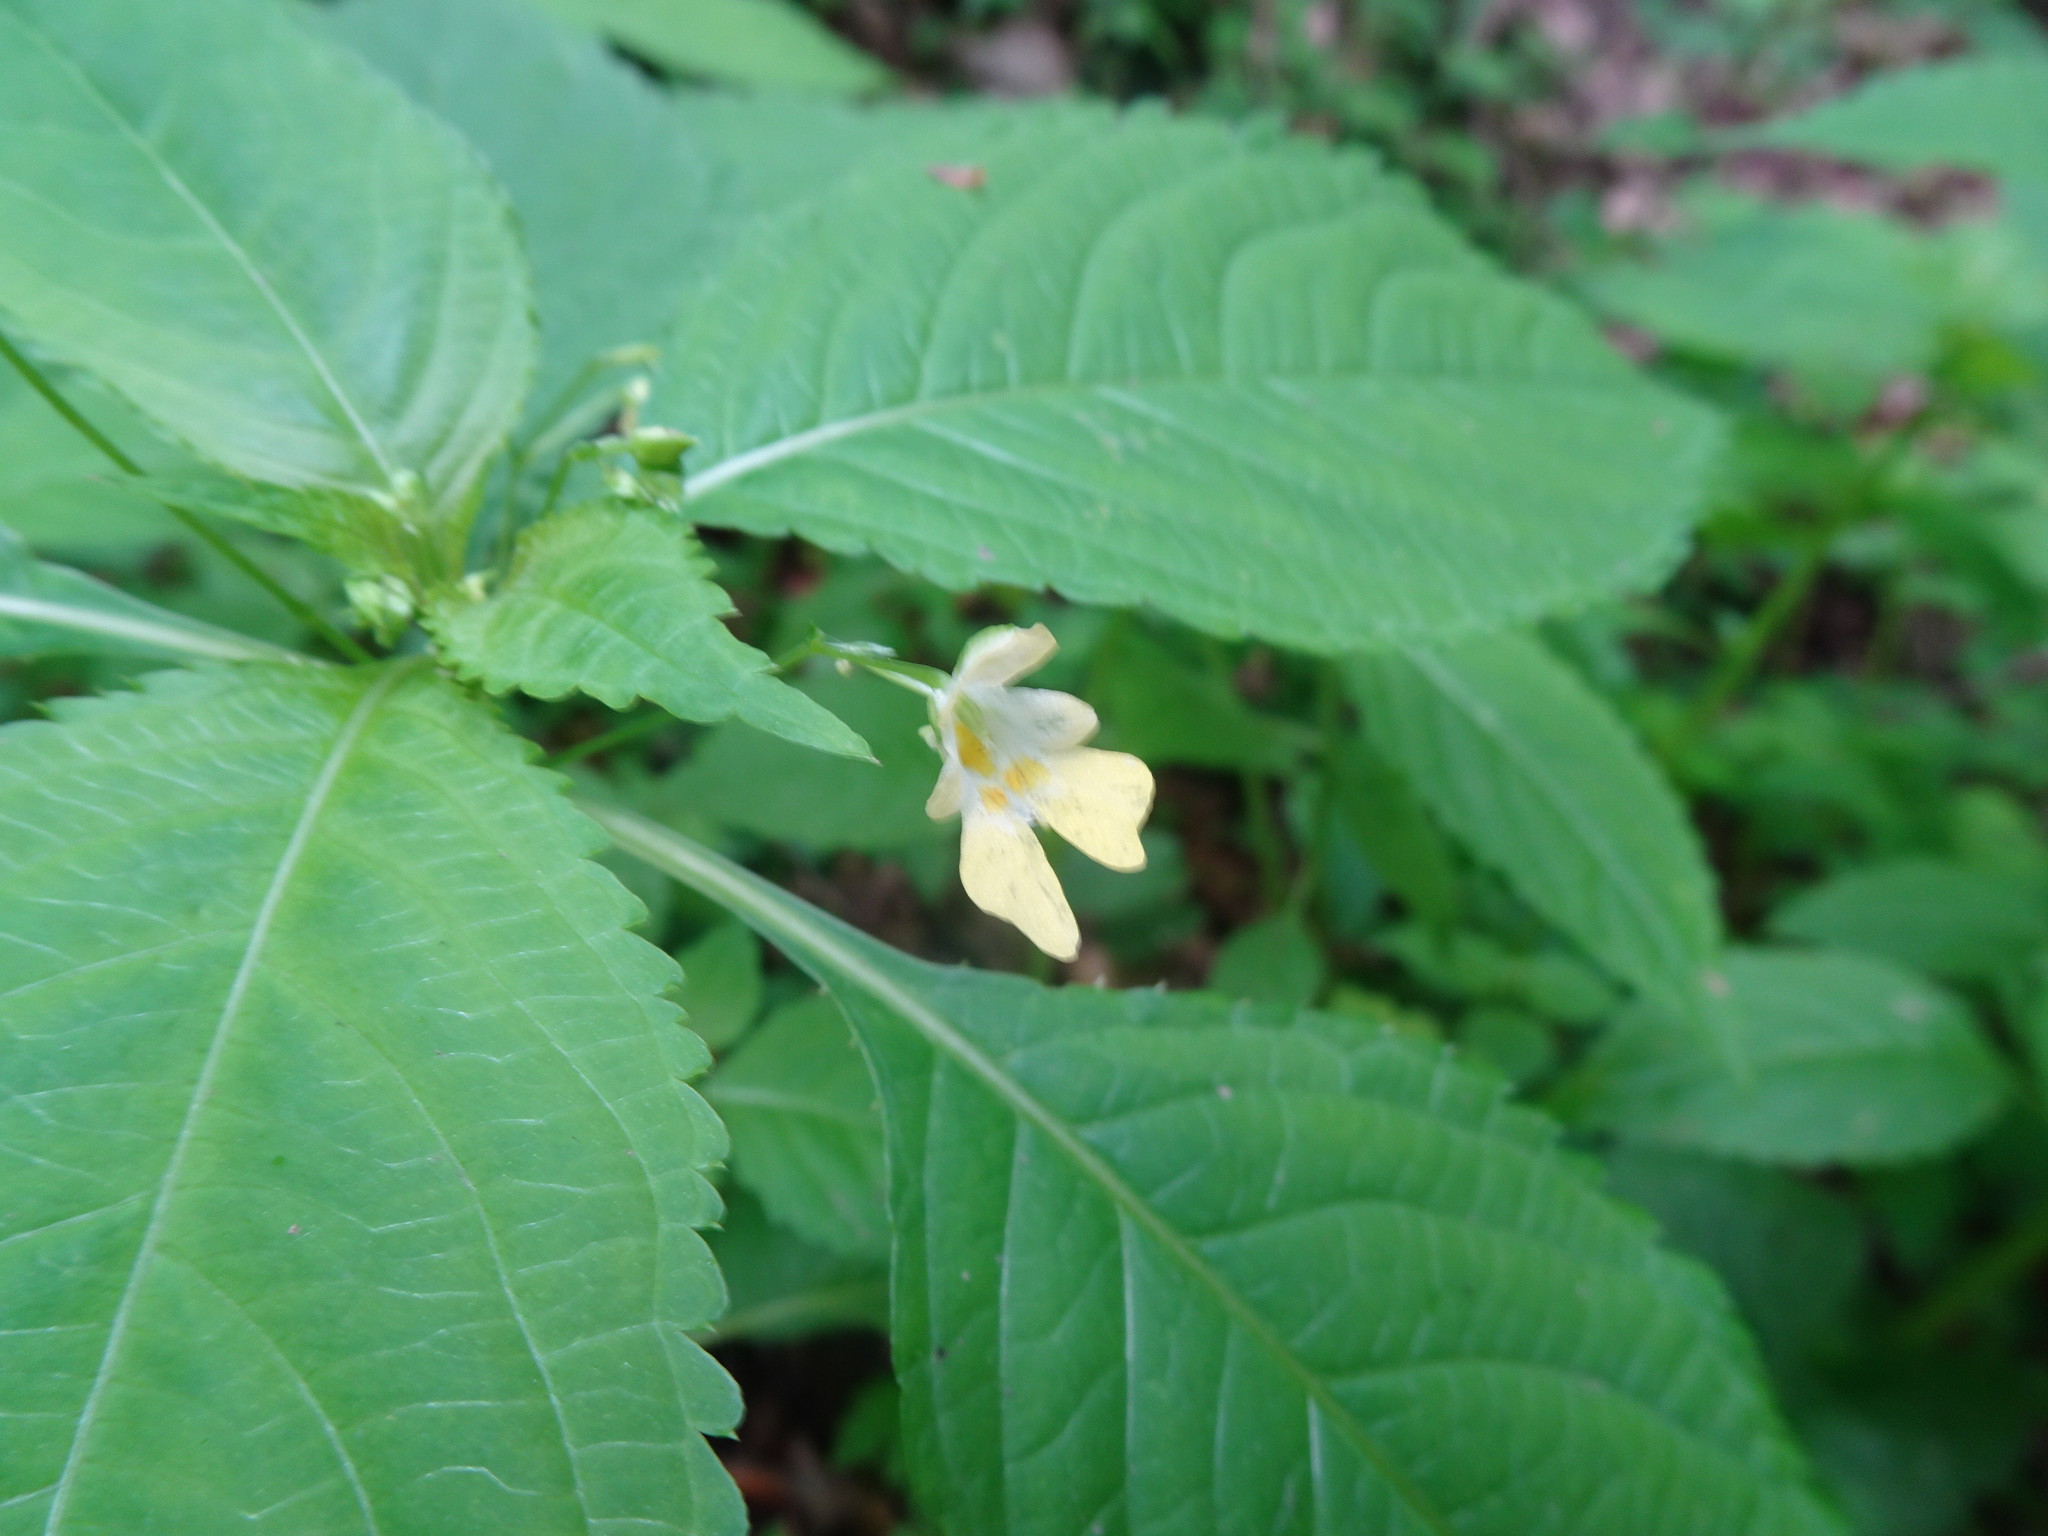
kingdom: Plantae
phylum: Tracheophyta
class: Magnoliopsida
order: Ericales
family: Balsaminaceae
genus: Impatiens
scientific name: Impatiens parviflora
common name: Small balsam
